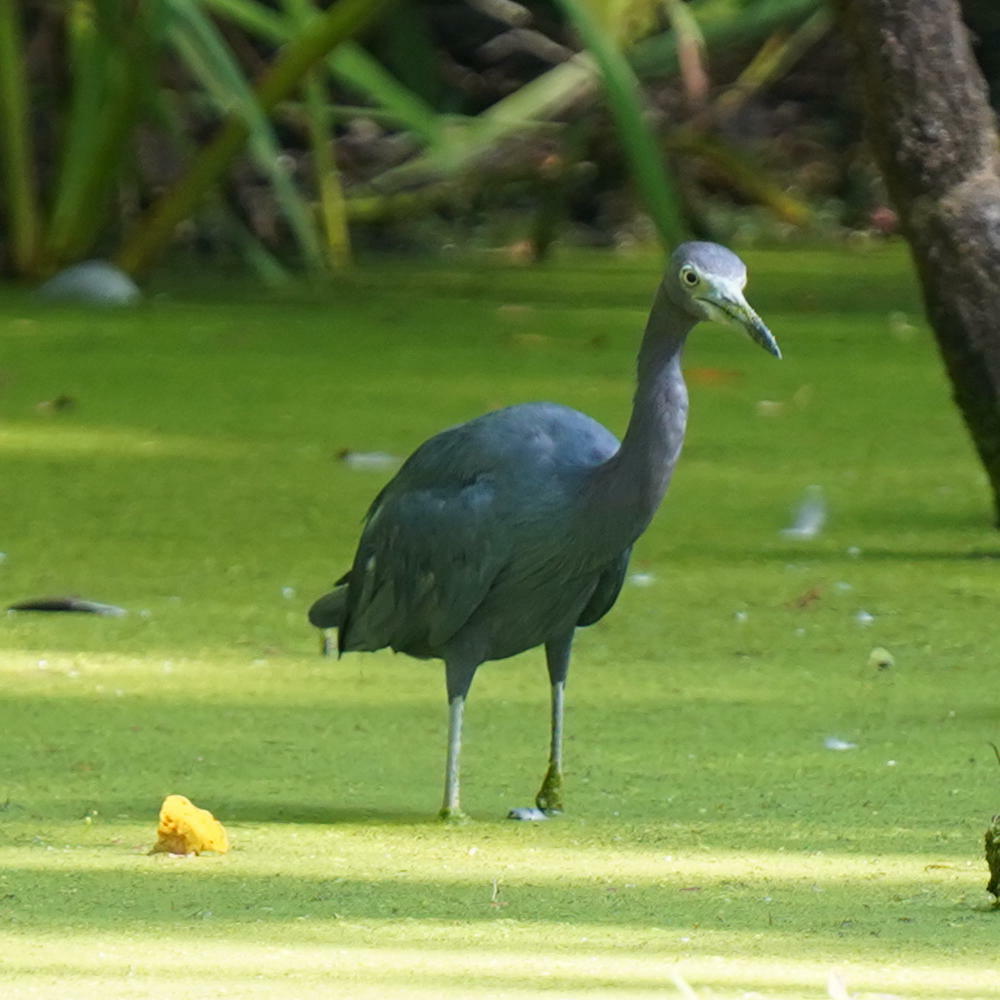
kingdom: Animalia
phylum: Chordata
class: Aves
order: Pelecaniformes
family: Ardeidae
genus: Egretta
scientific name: Egretta caerulea
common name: Little blue heron
